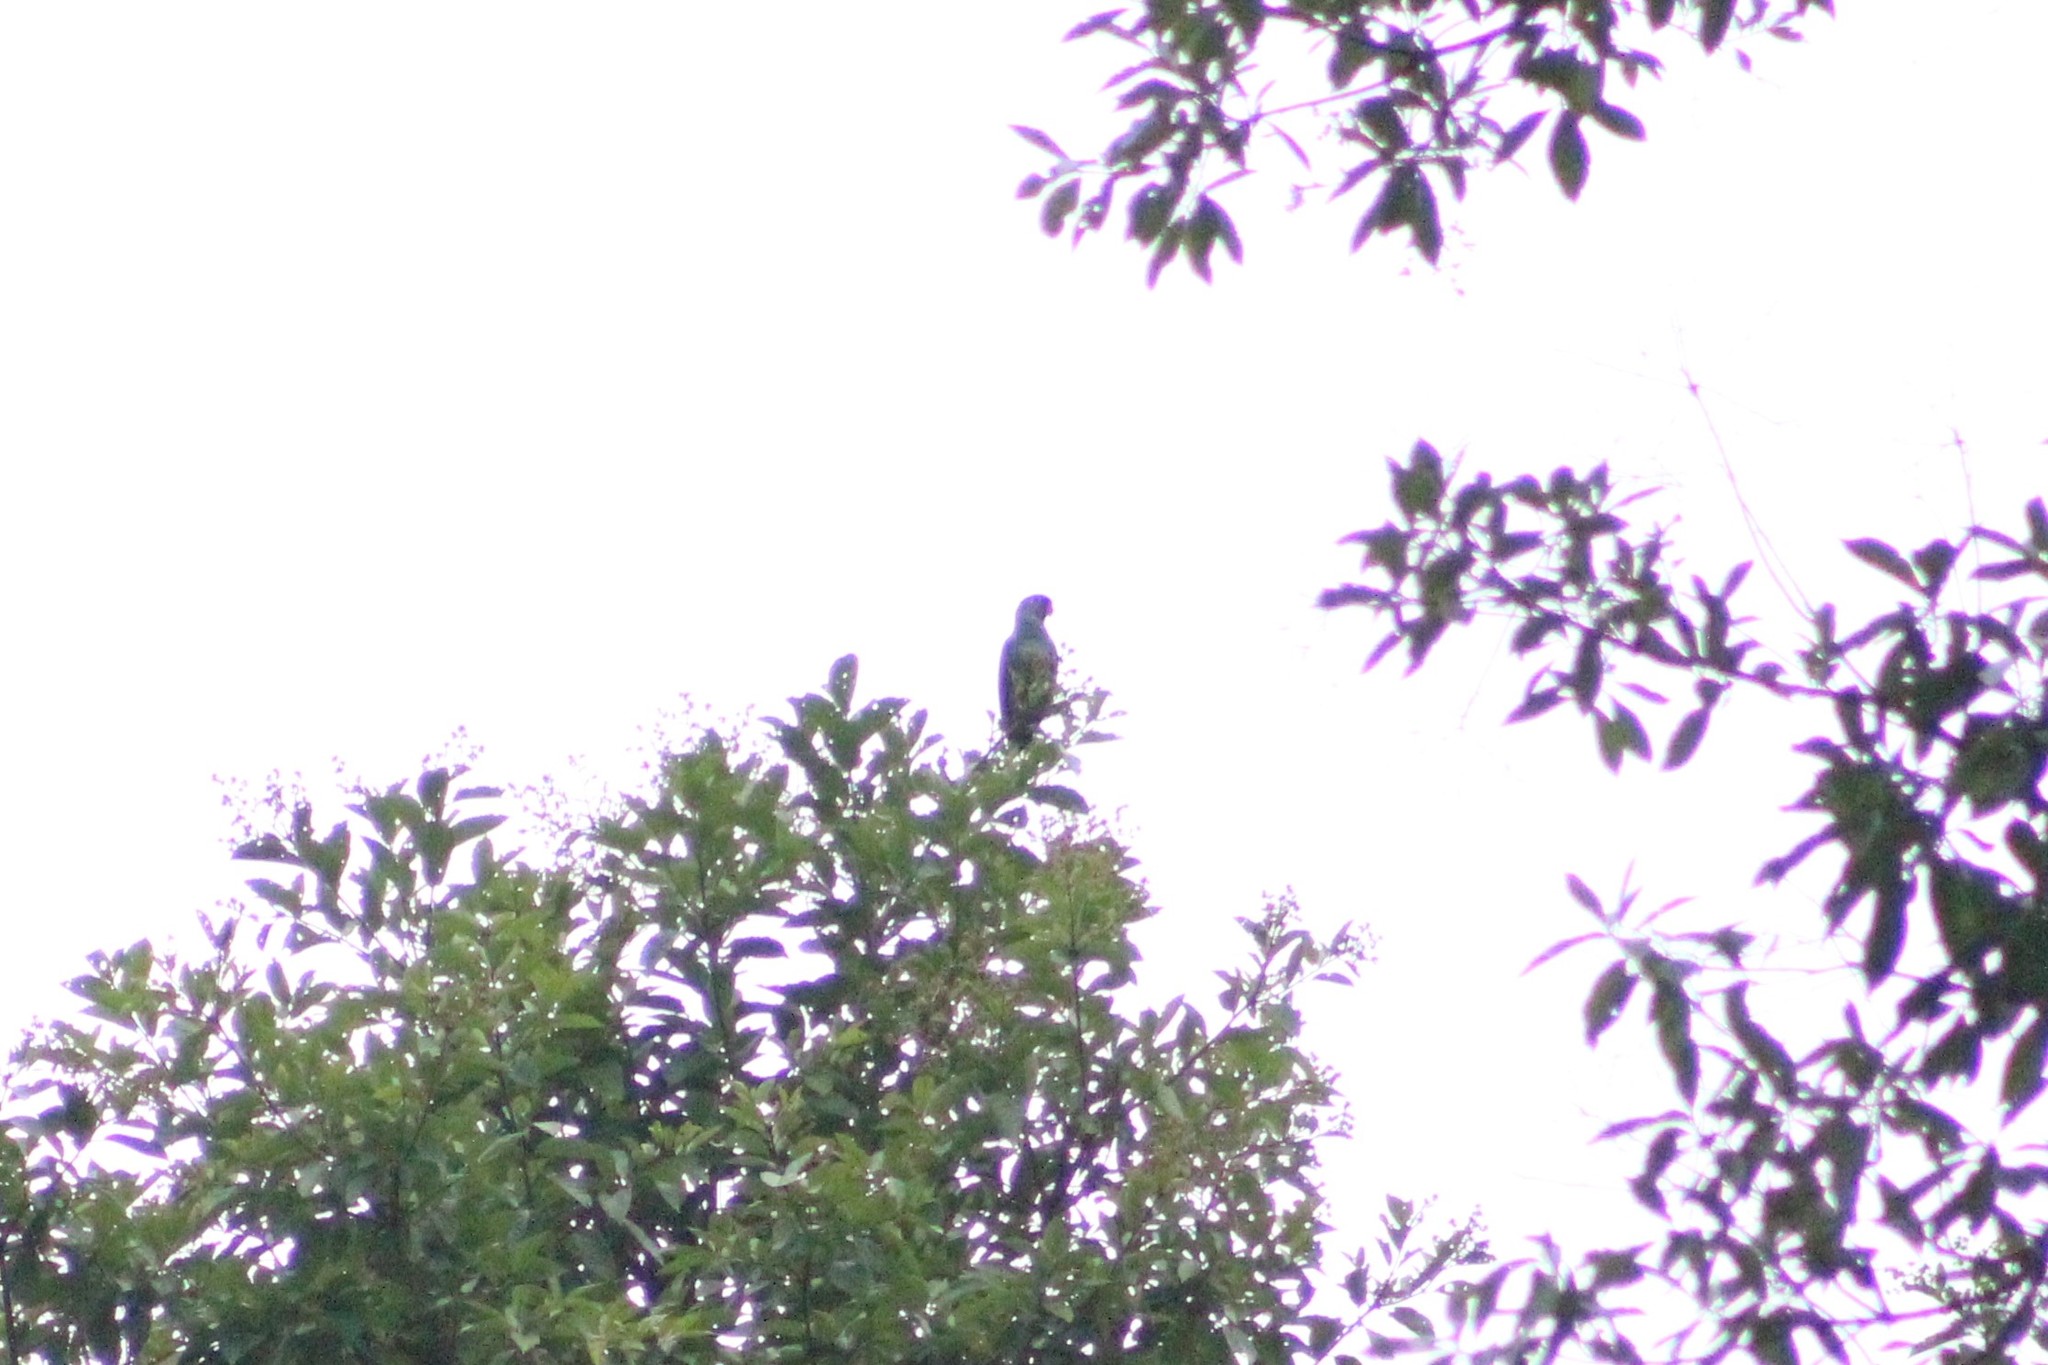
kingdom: Animalia
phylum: Chordata
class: Aves
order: Psittaciformes
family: Psittacidae
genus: Pionus
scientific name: Pionus menstruus
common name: Blue-headed parrot
